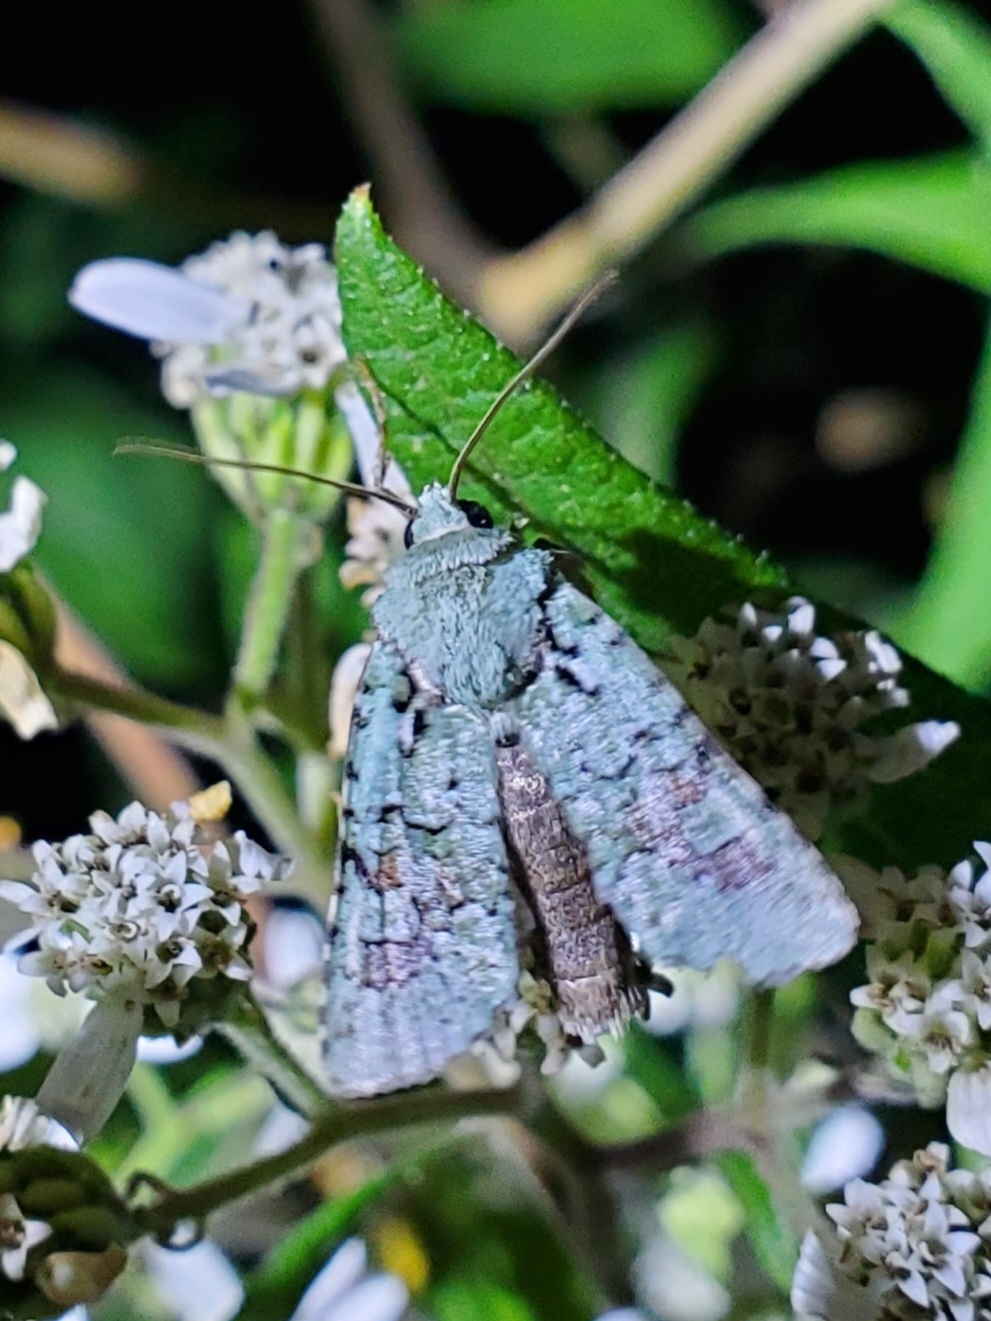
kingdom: Animalia
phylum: Arthropoda
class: Insecta
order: Lepidoptera
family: Noctuidae
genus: Lacinipolia
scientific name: Lacinipolia laudabilis
